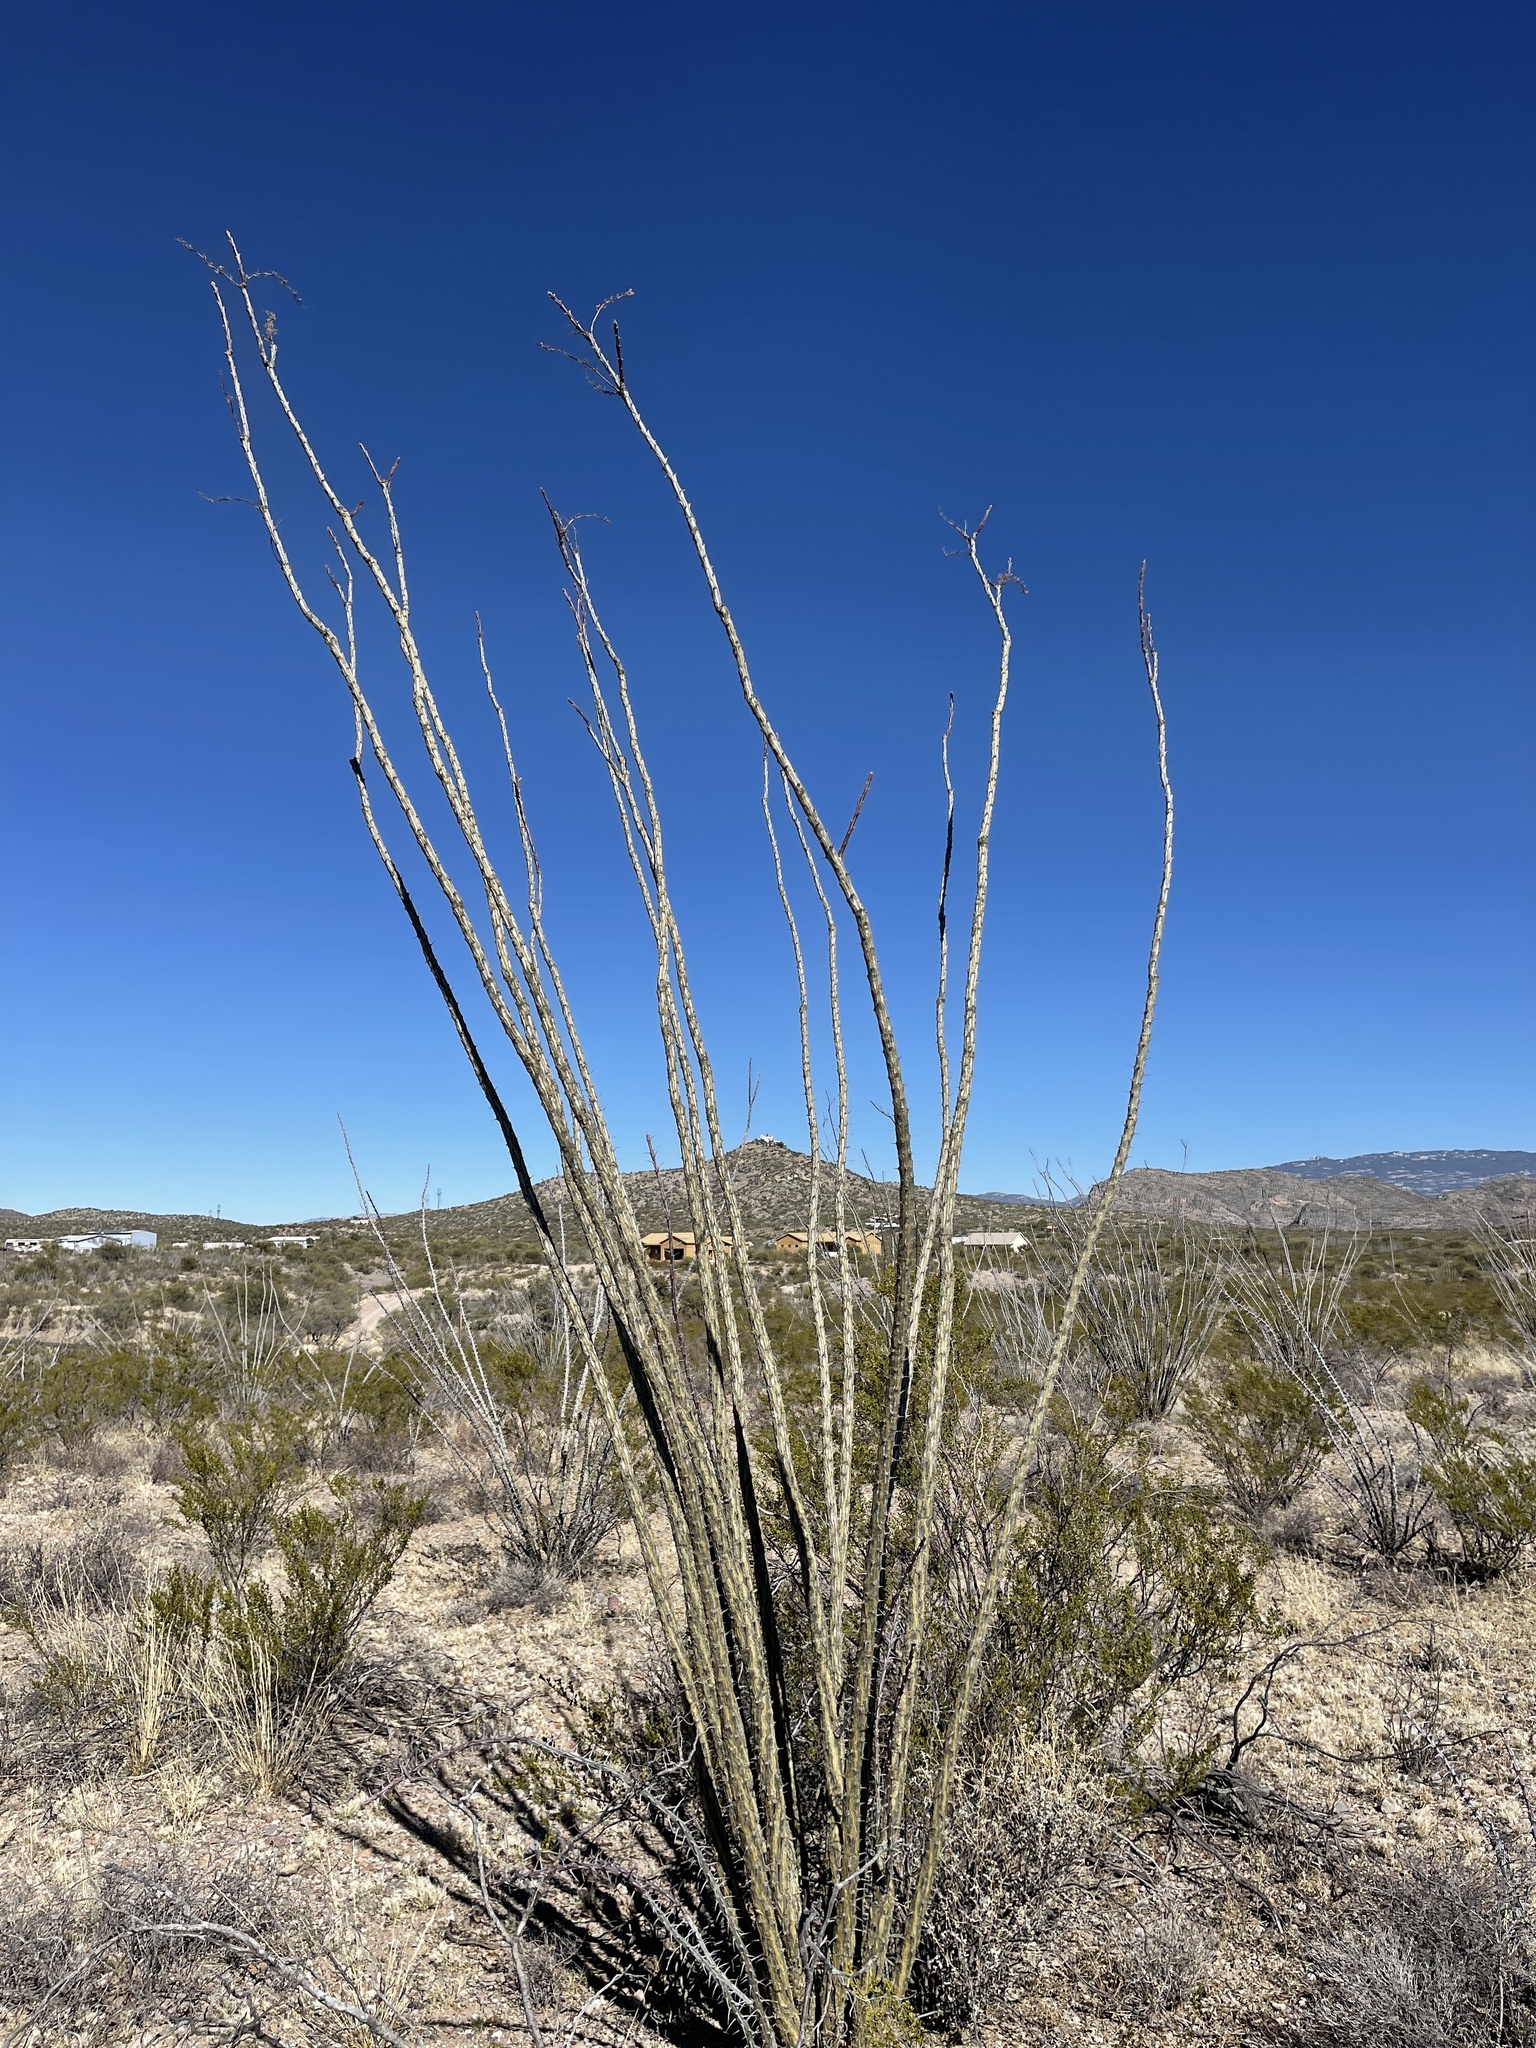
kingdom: Plantae
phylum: Tracheophyta
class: Magnoliopsida
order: Ericales
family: Fouquieriaceae
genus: Fouquieria
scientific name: Fouquieria splendens
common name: Vine-cactus
